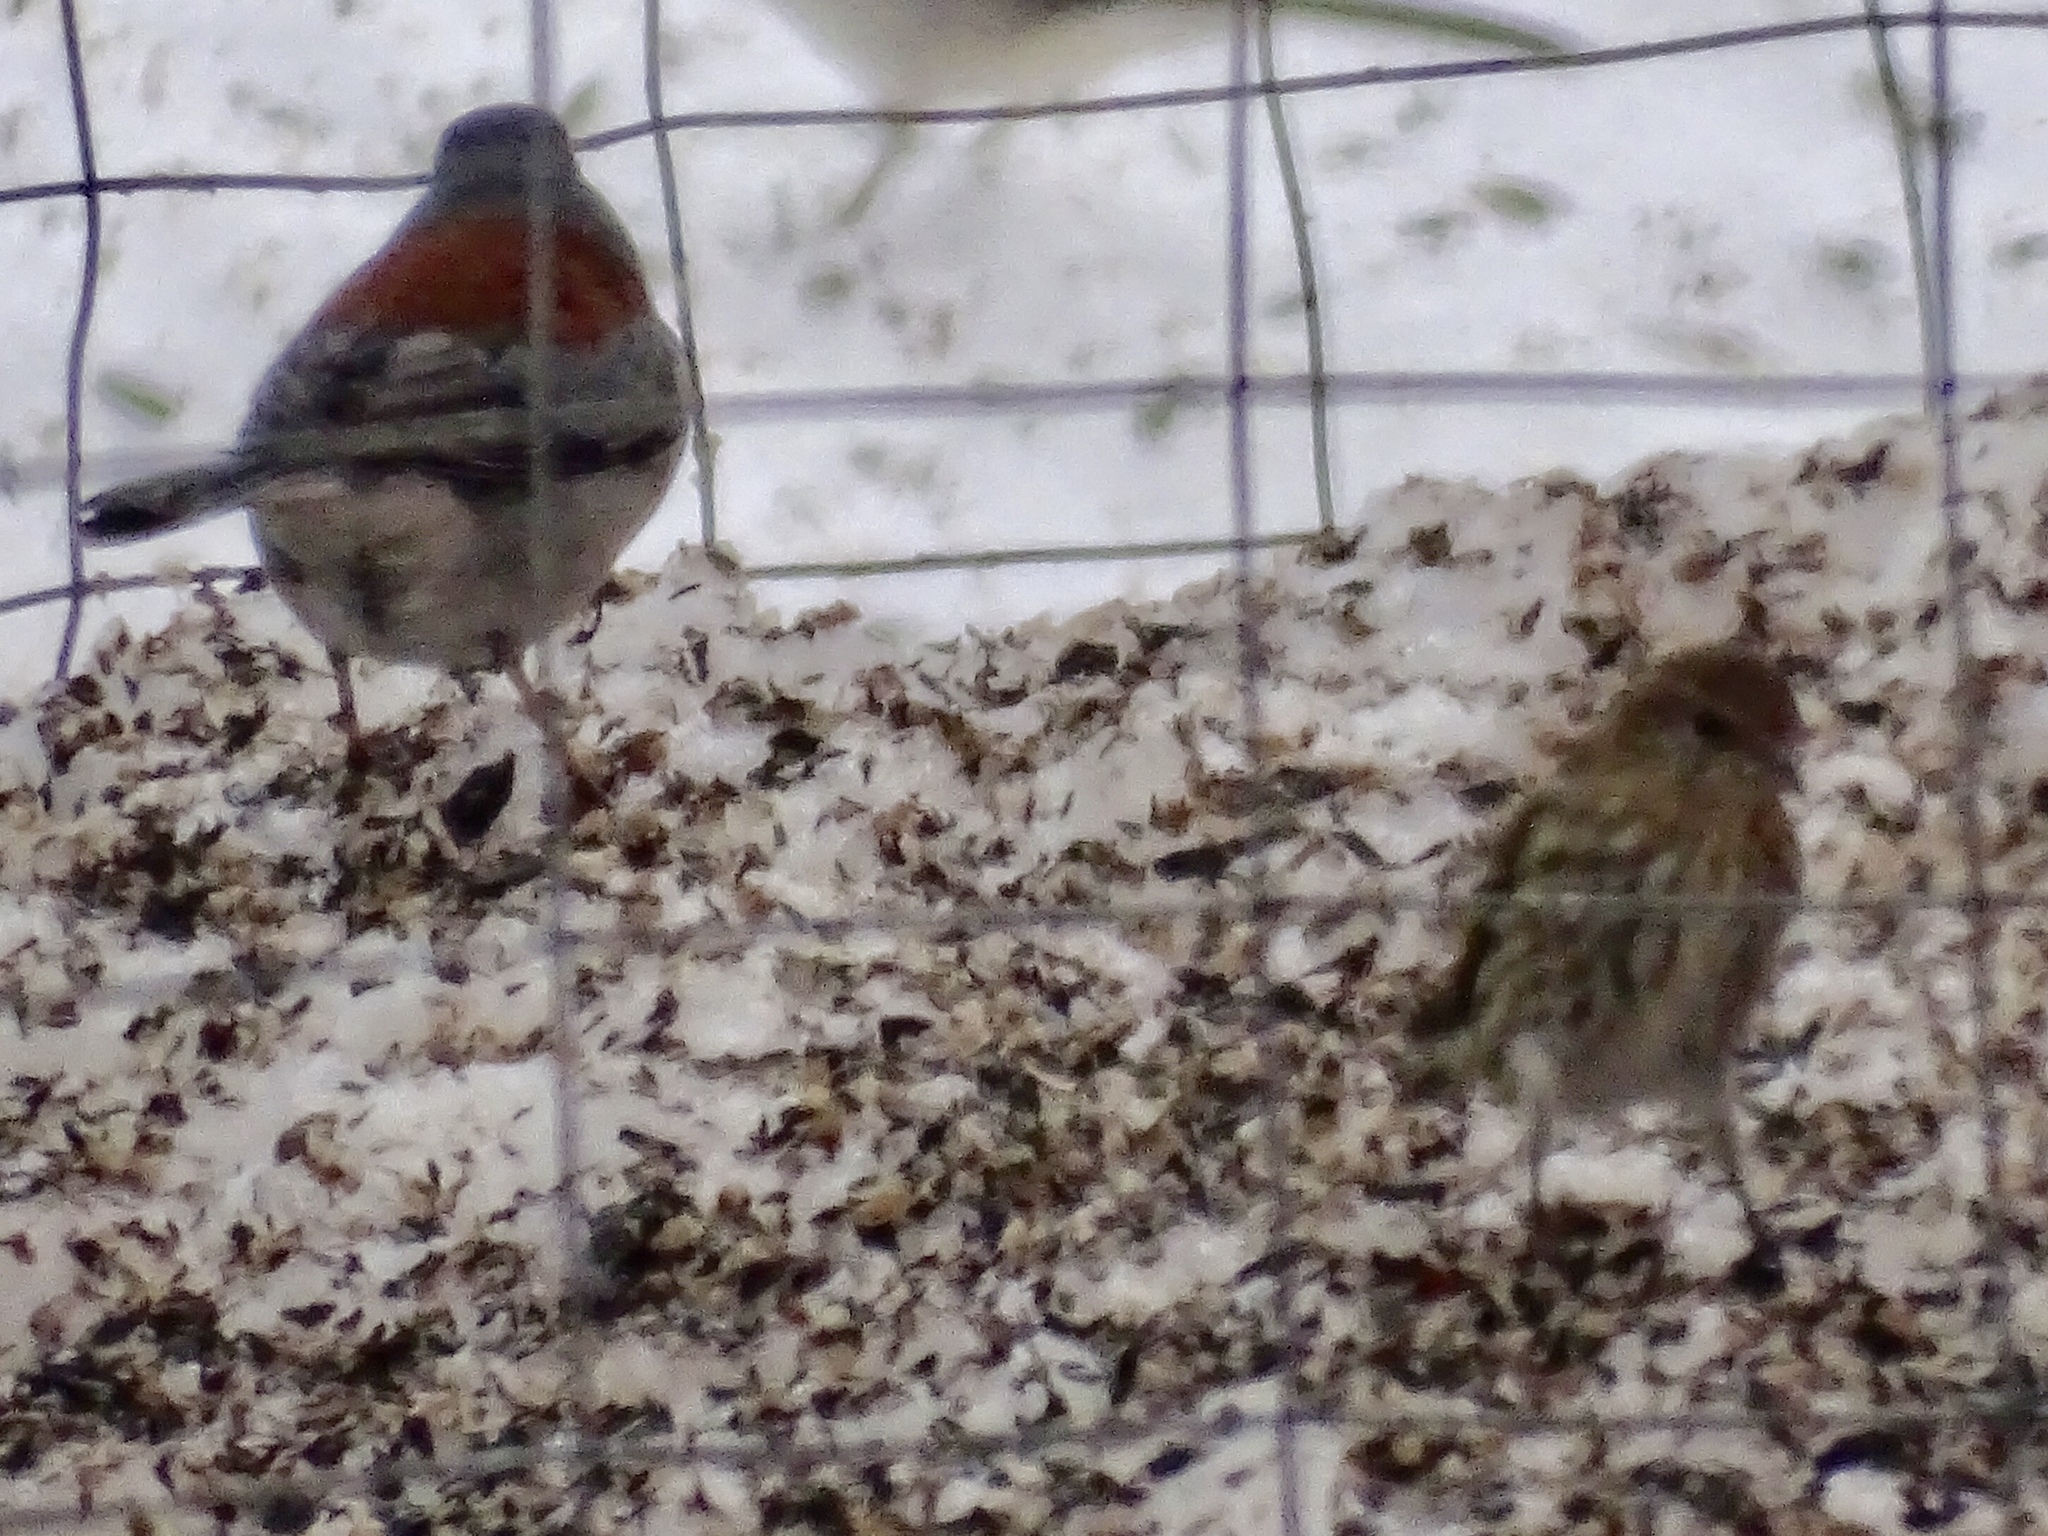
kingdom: Animalia
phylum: Chordata
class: Aves
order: Passeriformes
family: Fringillidae
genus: Spinus
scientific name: Spinus pinus
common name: Pine siskin
